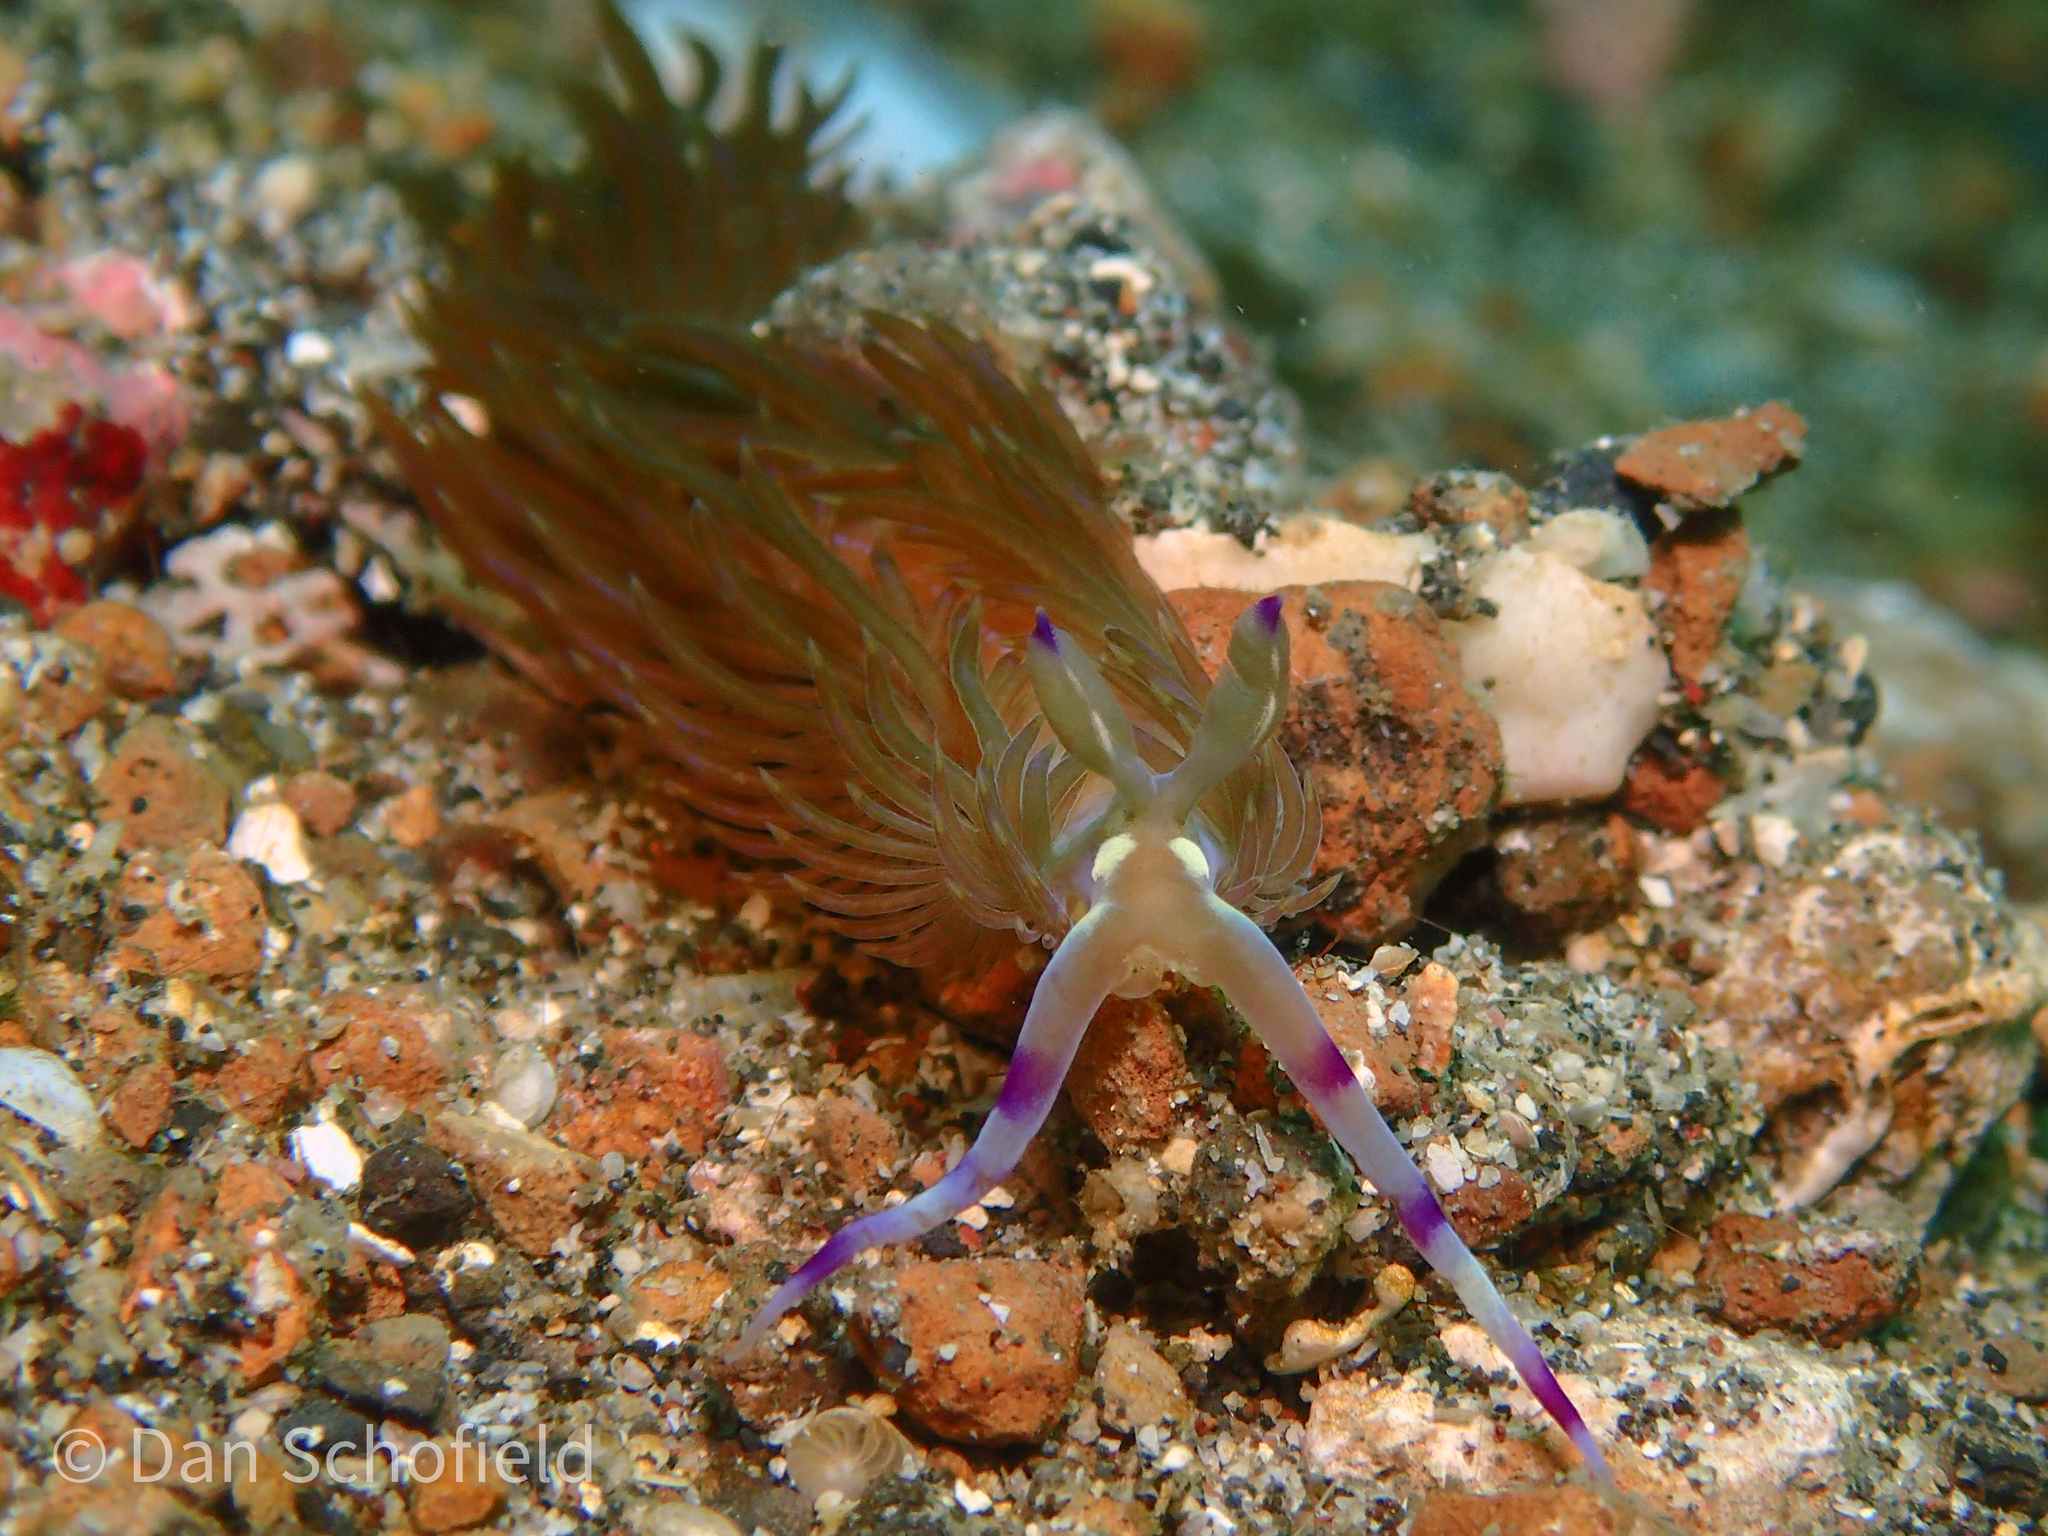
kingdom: Animalia
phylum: Mollusca
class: Gastropoda
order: Nudibranchia
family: Facelinidae
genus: Pteraeolidia
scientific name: Pteraeolidia semperi
